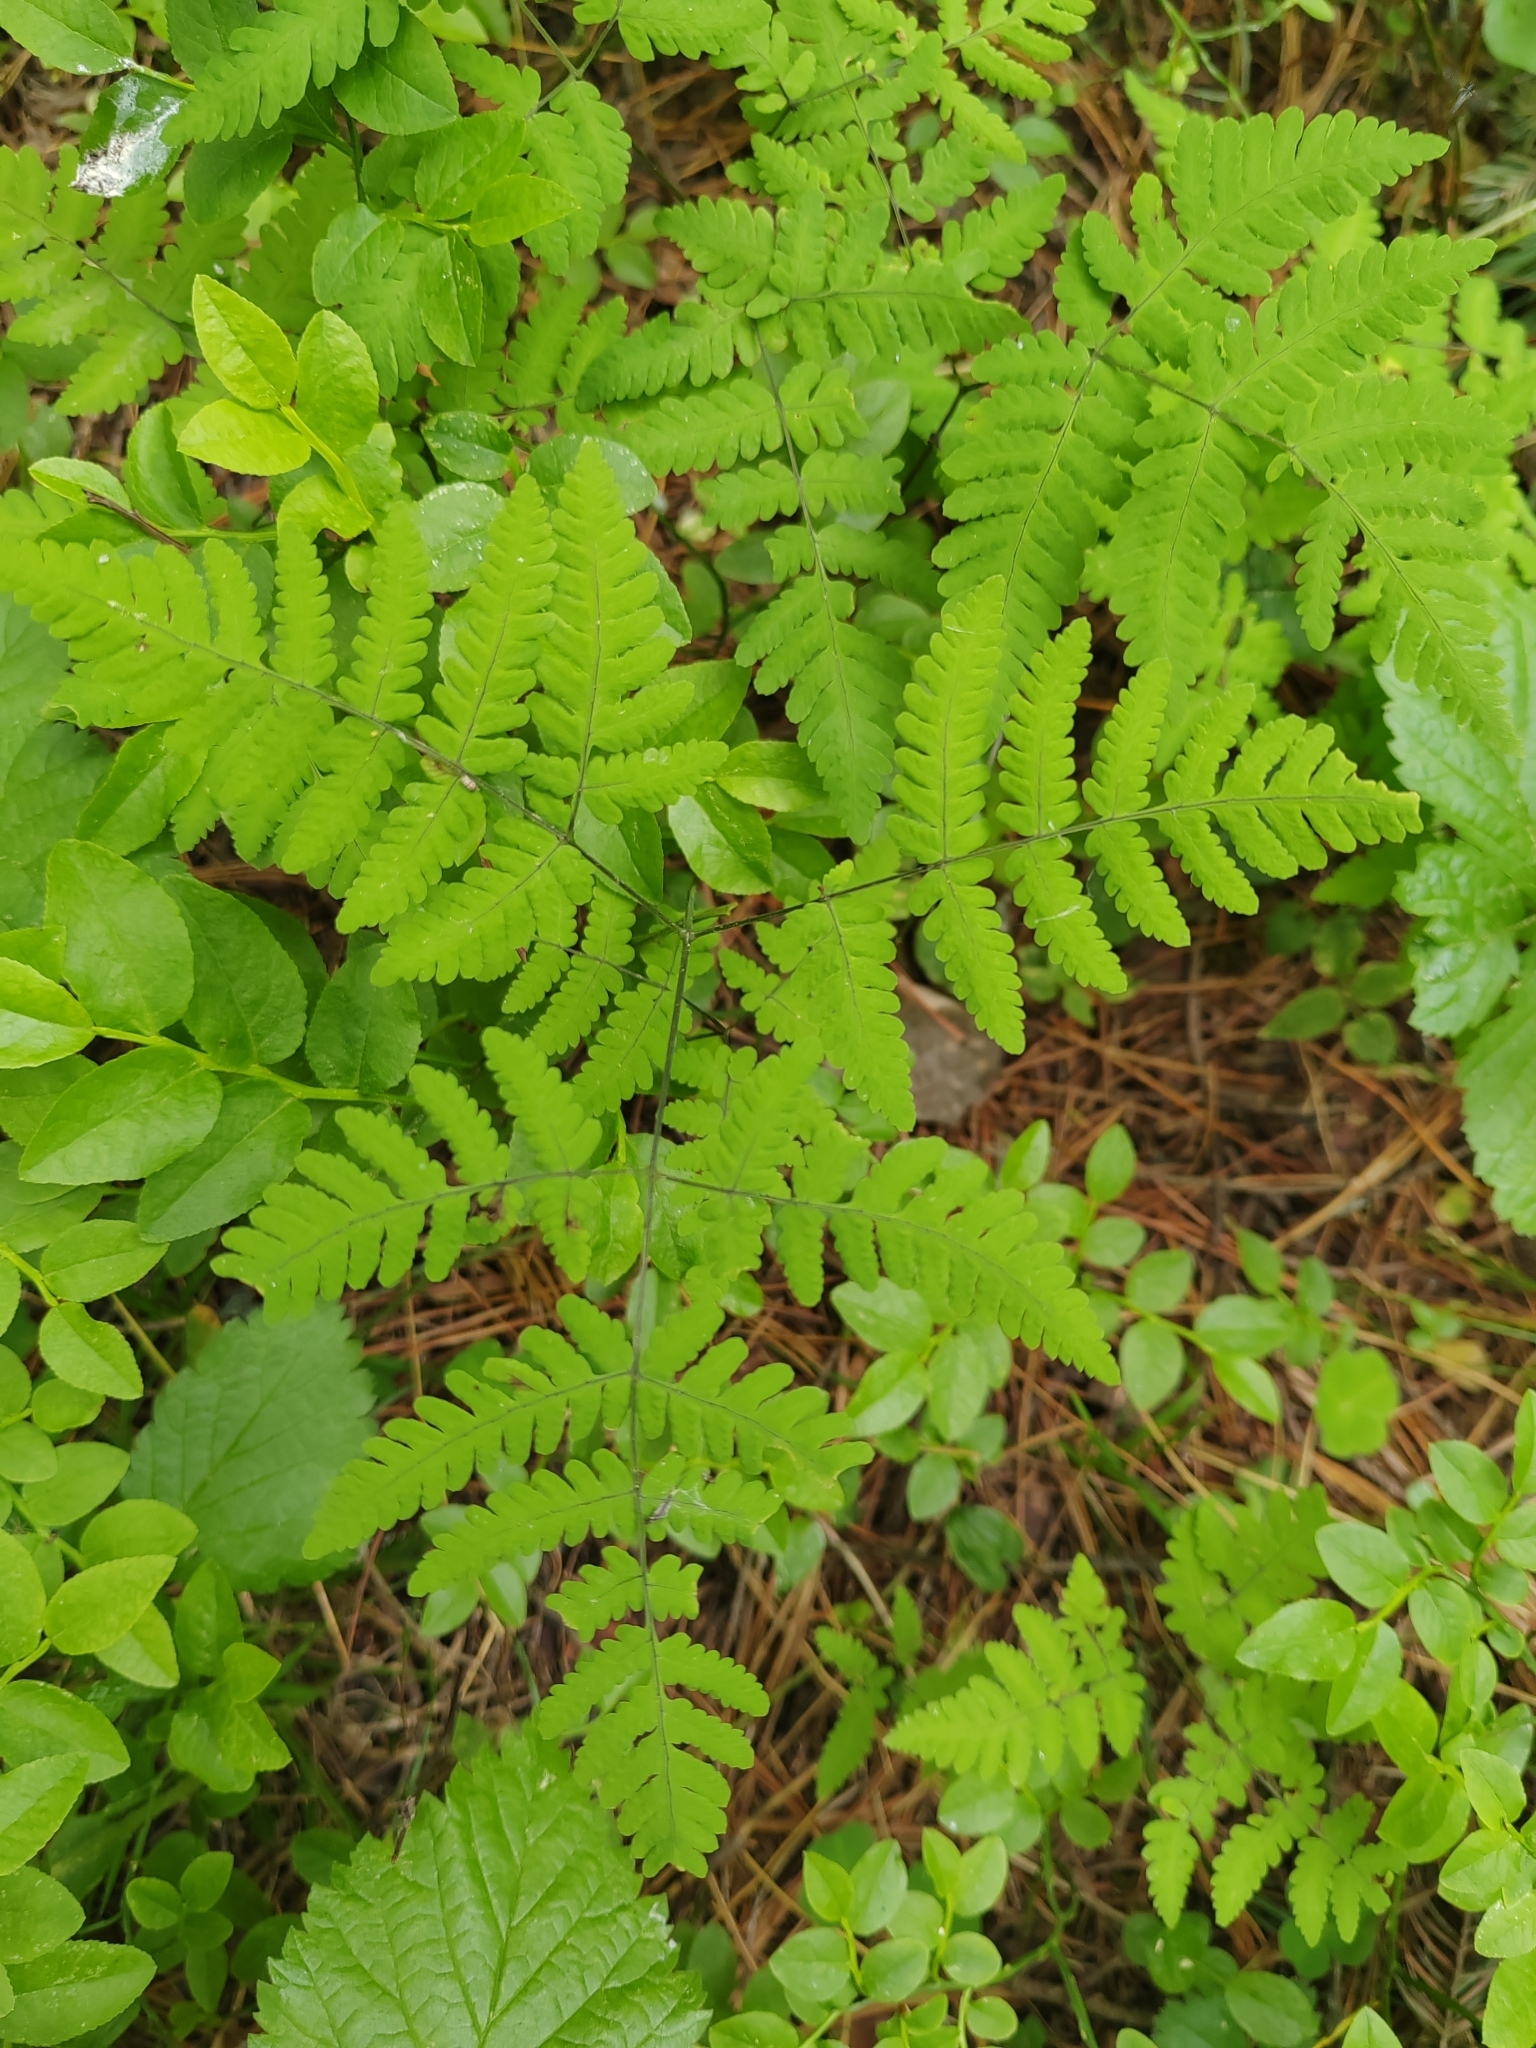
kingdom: Plantae
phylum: Tracheophyta
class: Polypodiopsida
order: Polypodiales
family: Cystopteridaceae
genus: Gymnocarpium
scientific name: Gymnocarpium dryopteris
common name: Oak fern
